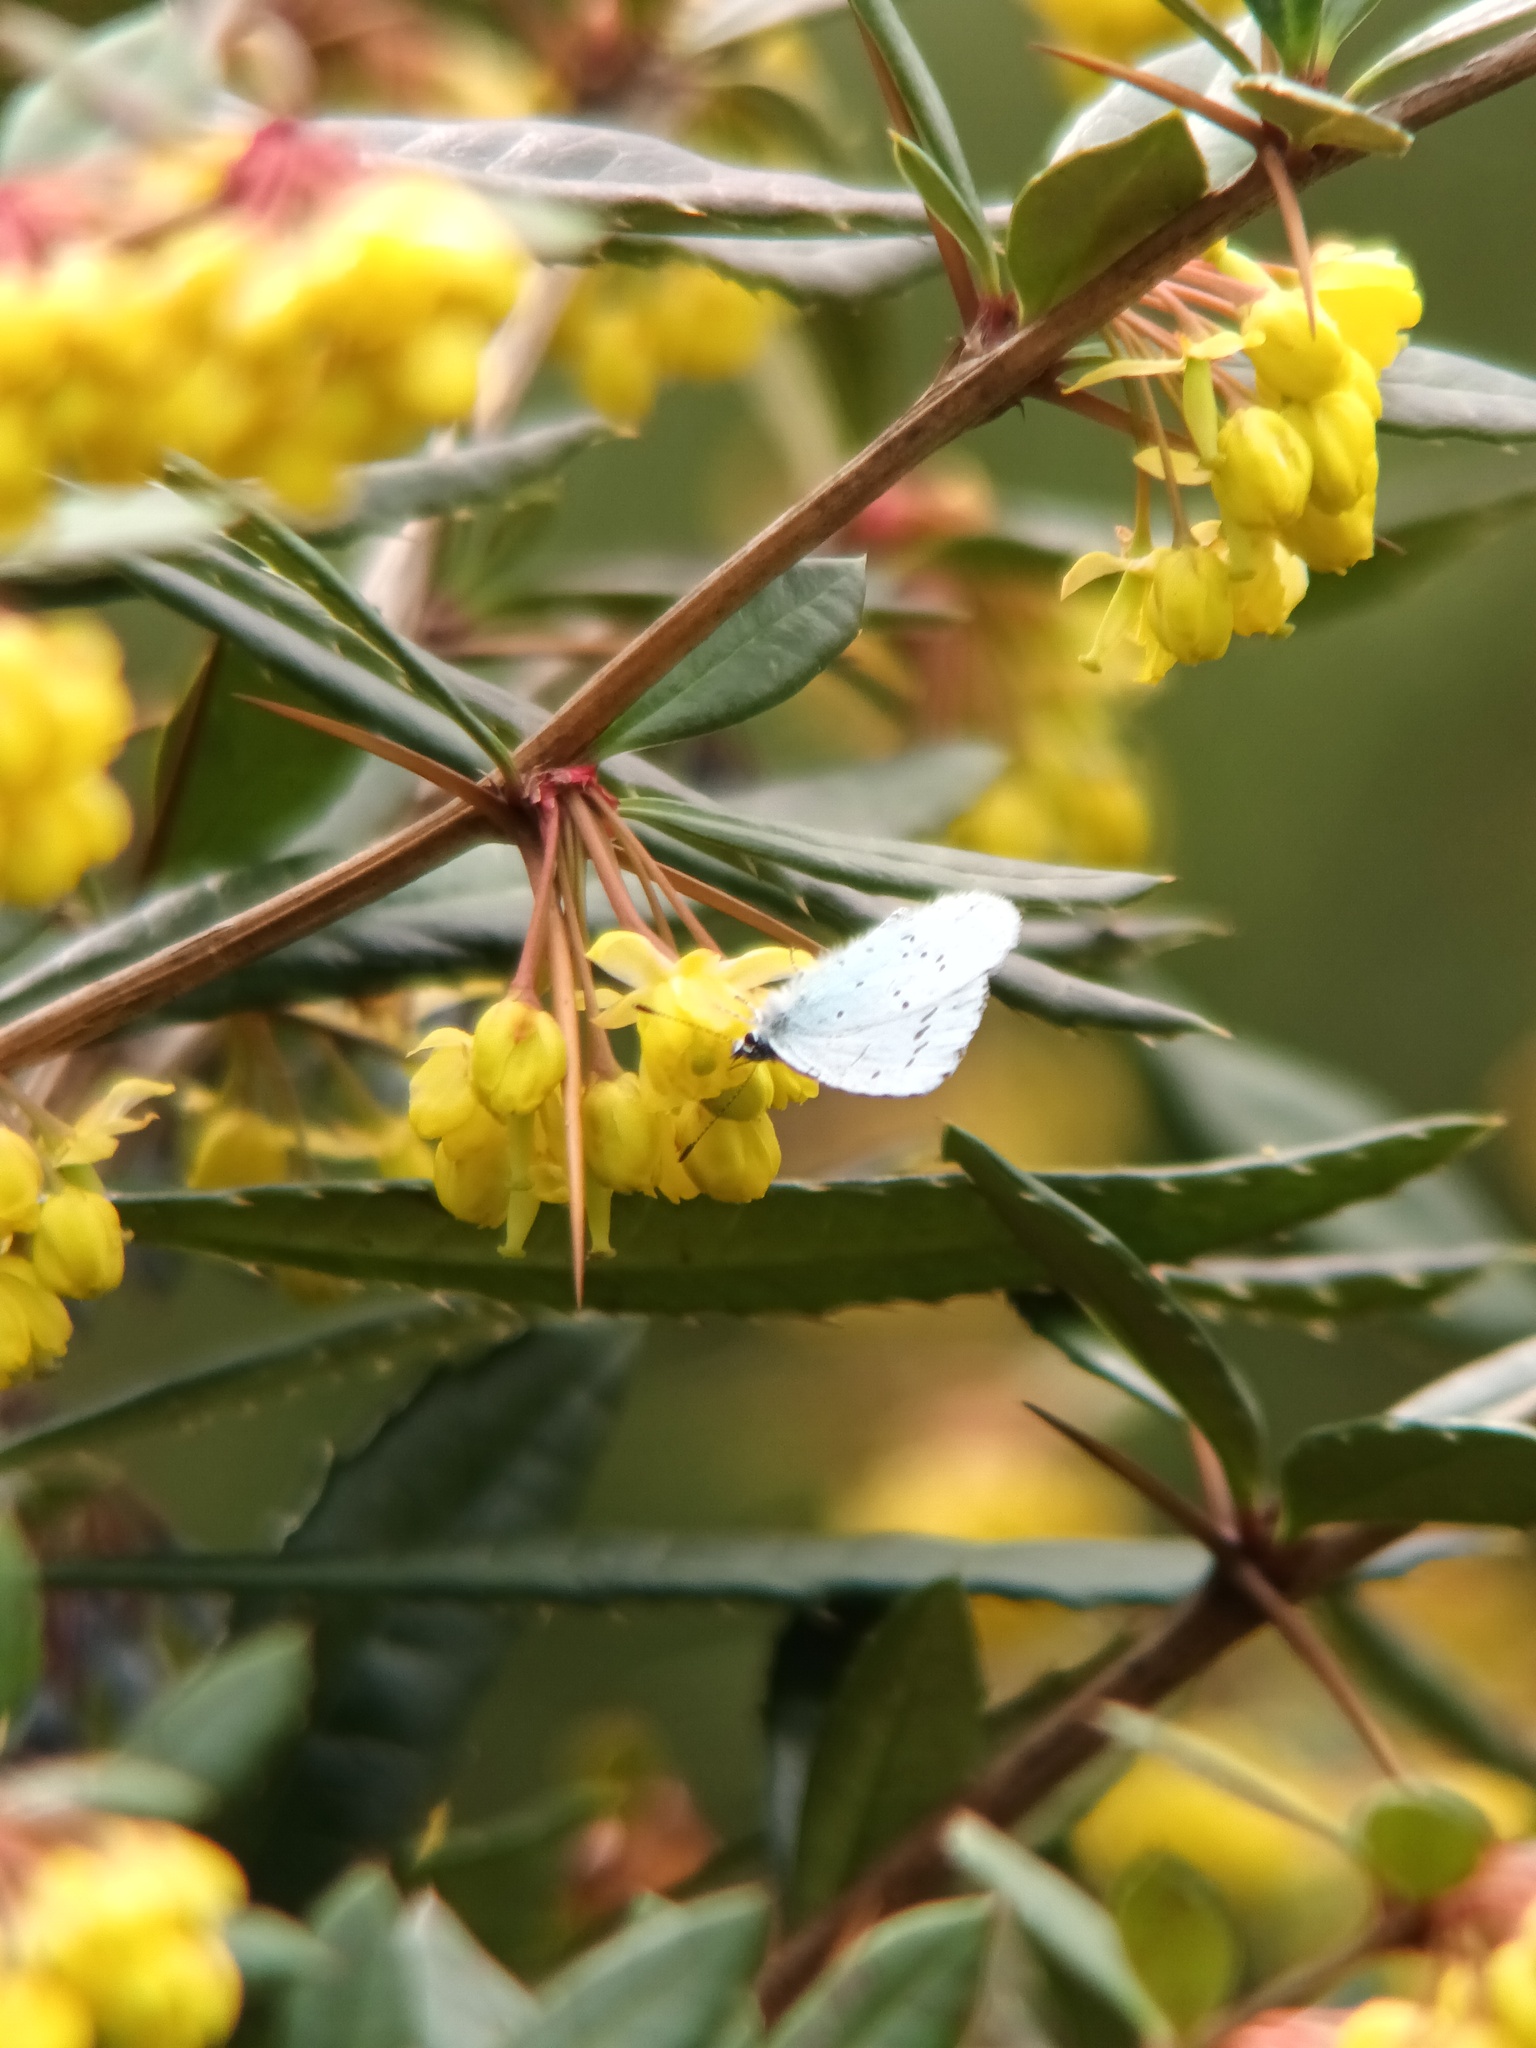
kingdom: Animalia
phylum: Arthropoda
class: Insecta
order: Lepidoptera
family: Lycaenidae
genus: Celastrina
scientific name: Celastrina argiolus
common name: Holly blue
